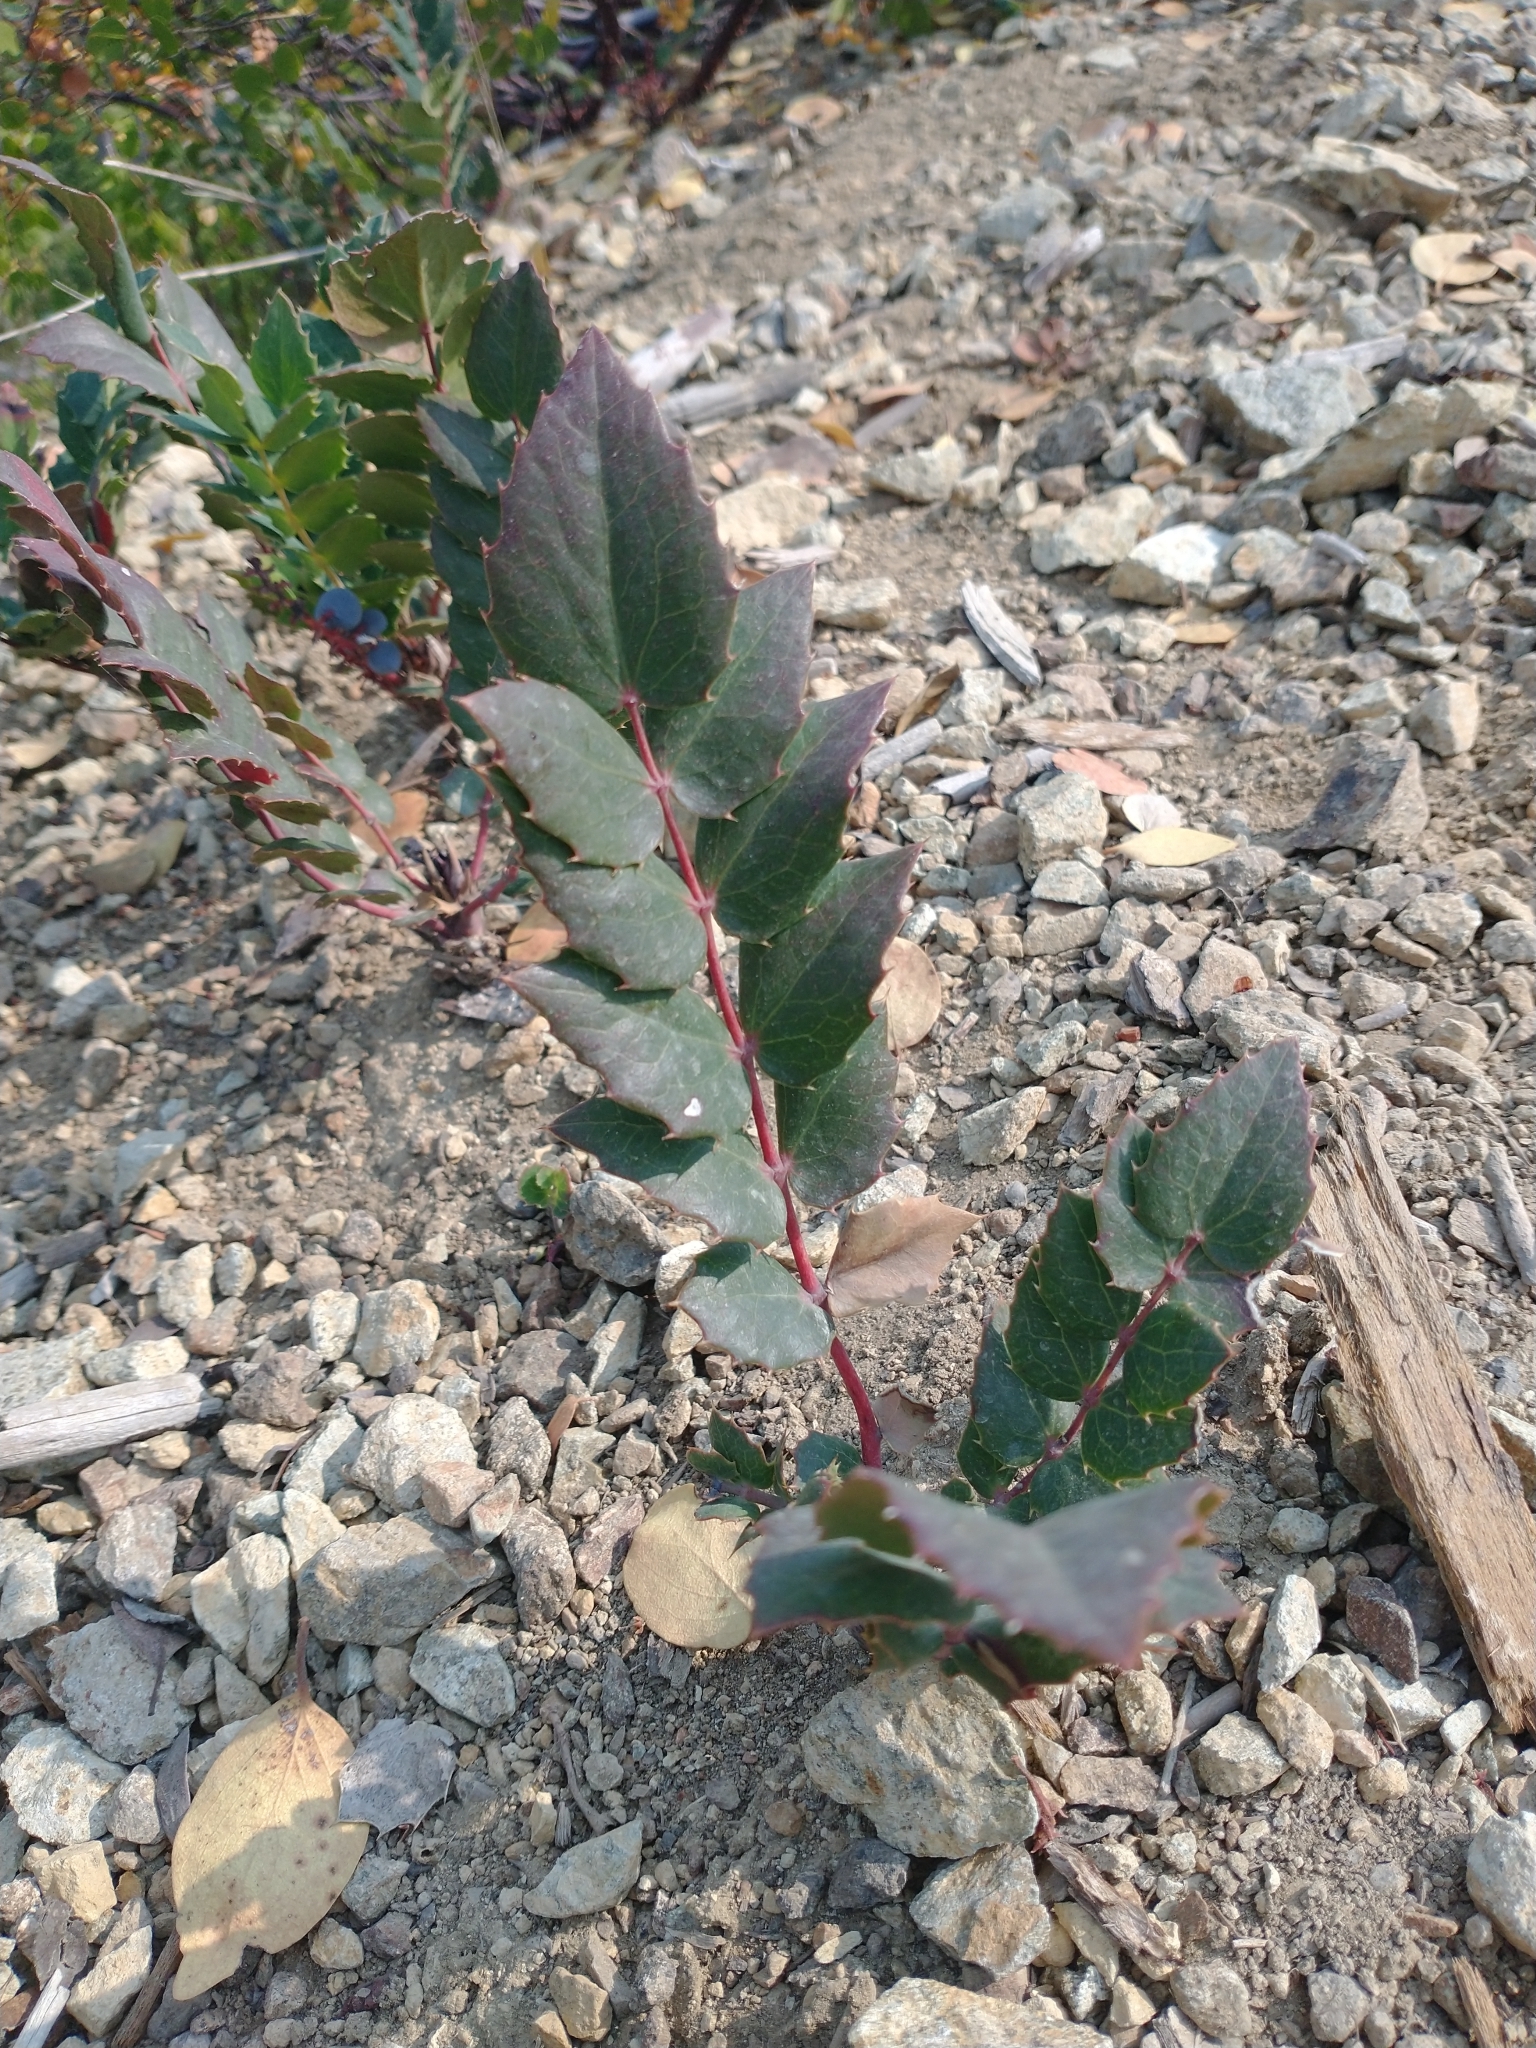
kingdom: Plantae
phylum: Tracheophyta
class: Magnoliopsida
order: Ranunculales
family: Berberidaceae
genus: Mahonia
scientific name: Mahonia nervosa
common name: Cascade oregon-grape
